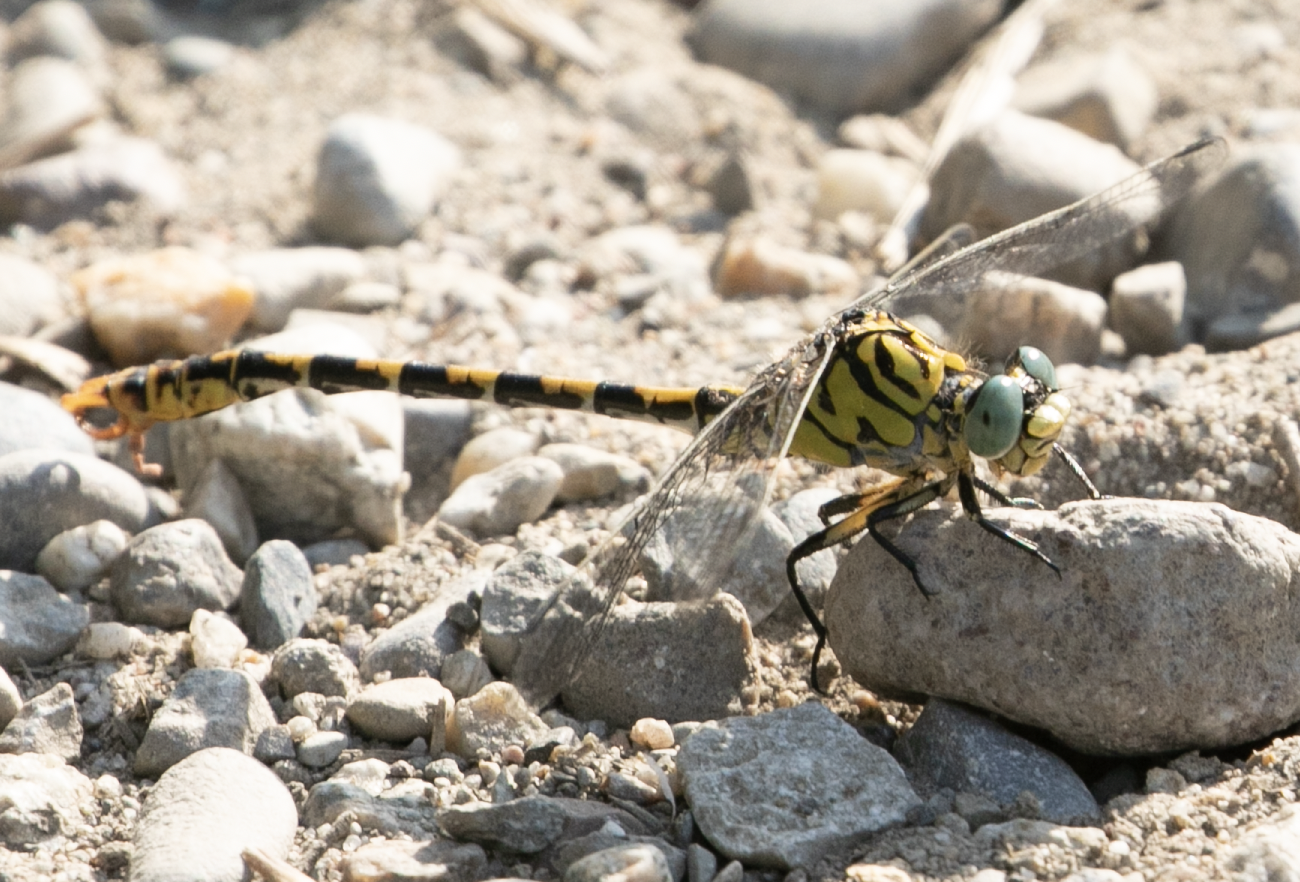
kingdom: Animalia
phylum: Arthropoda
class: Insecta
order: Odonata
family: Gomphidae
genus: Onychogomphus
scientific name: Onychogomphus forcipatus
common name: Small pincertail
